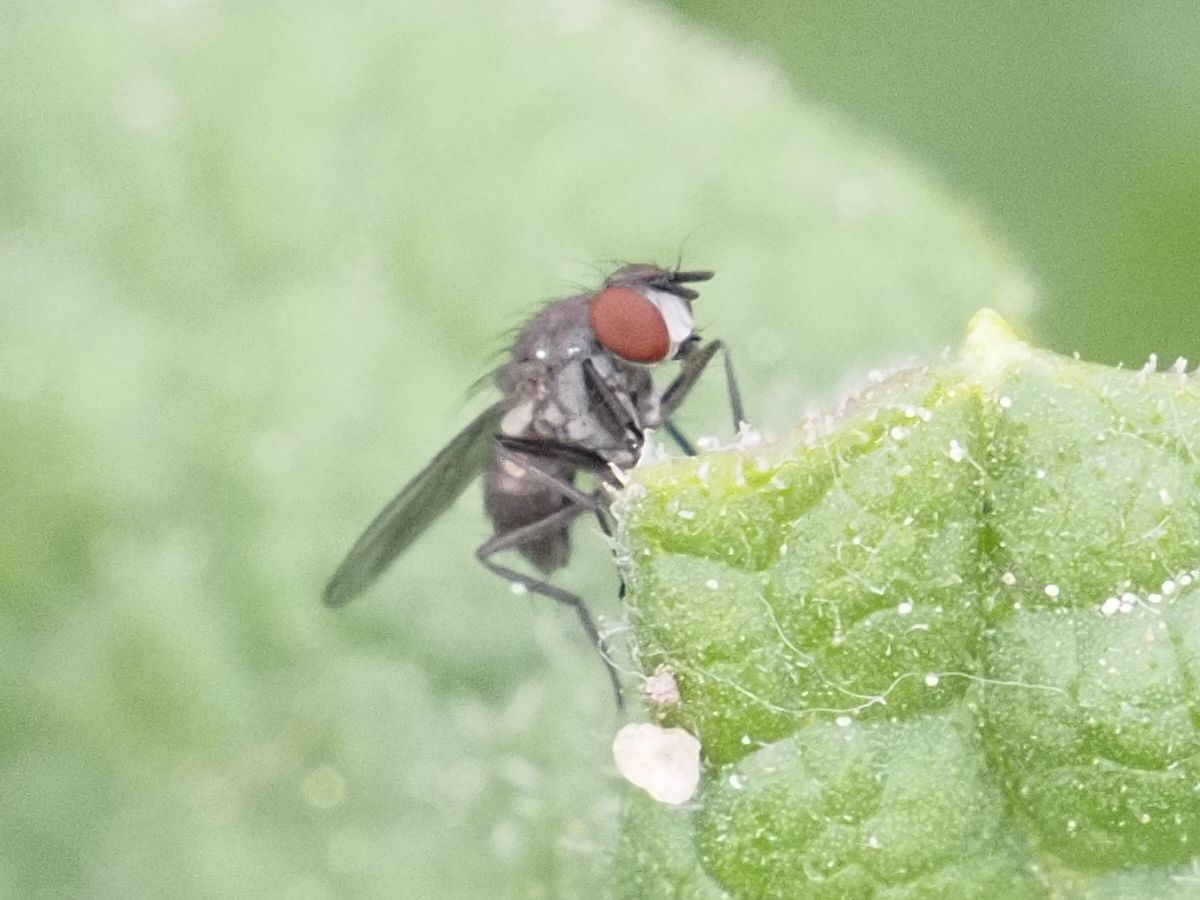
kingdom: Animalia
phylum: Arthropoda
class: Insecta
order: Diptera
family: Muscidae
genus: Coenosia
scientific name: Coenosia agromyzina
